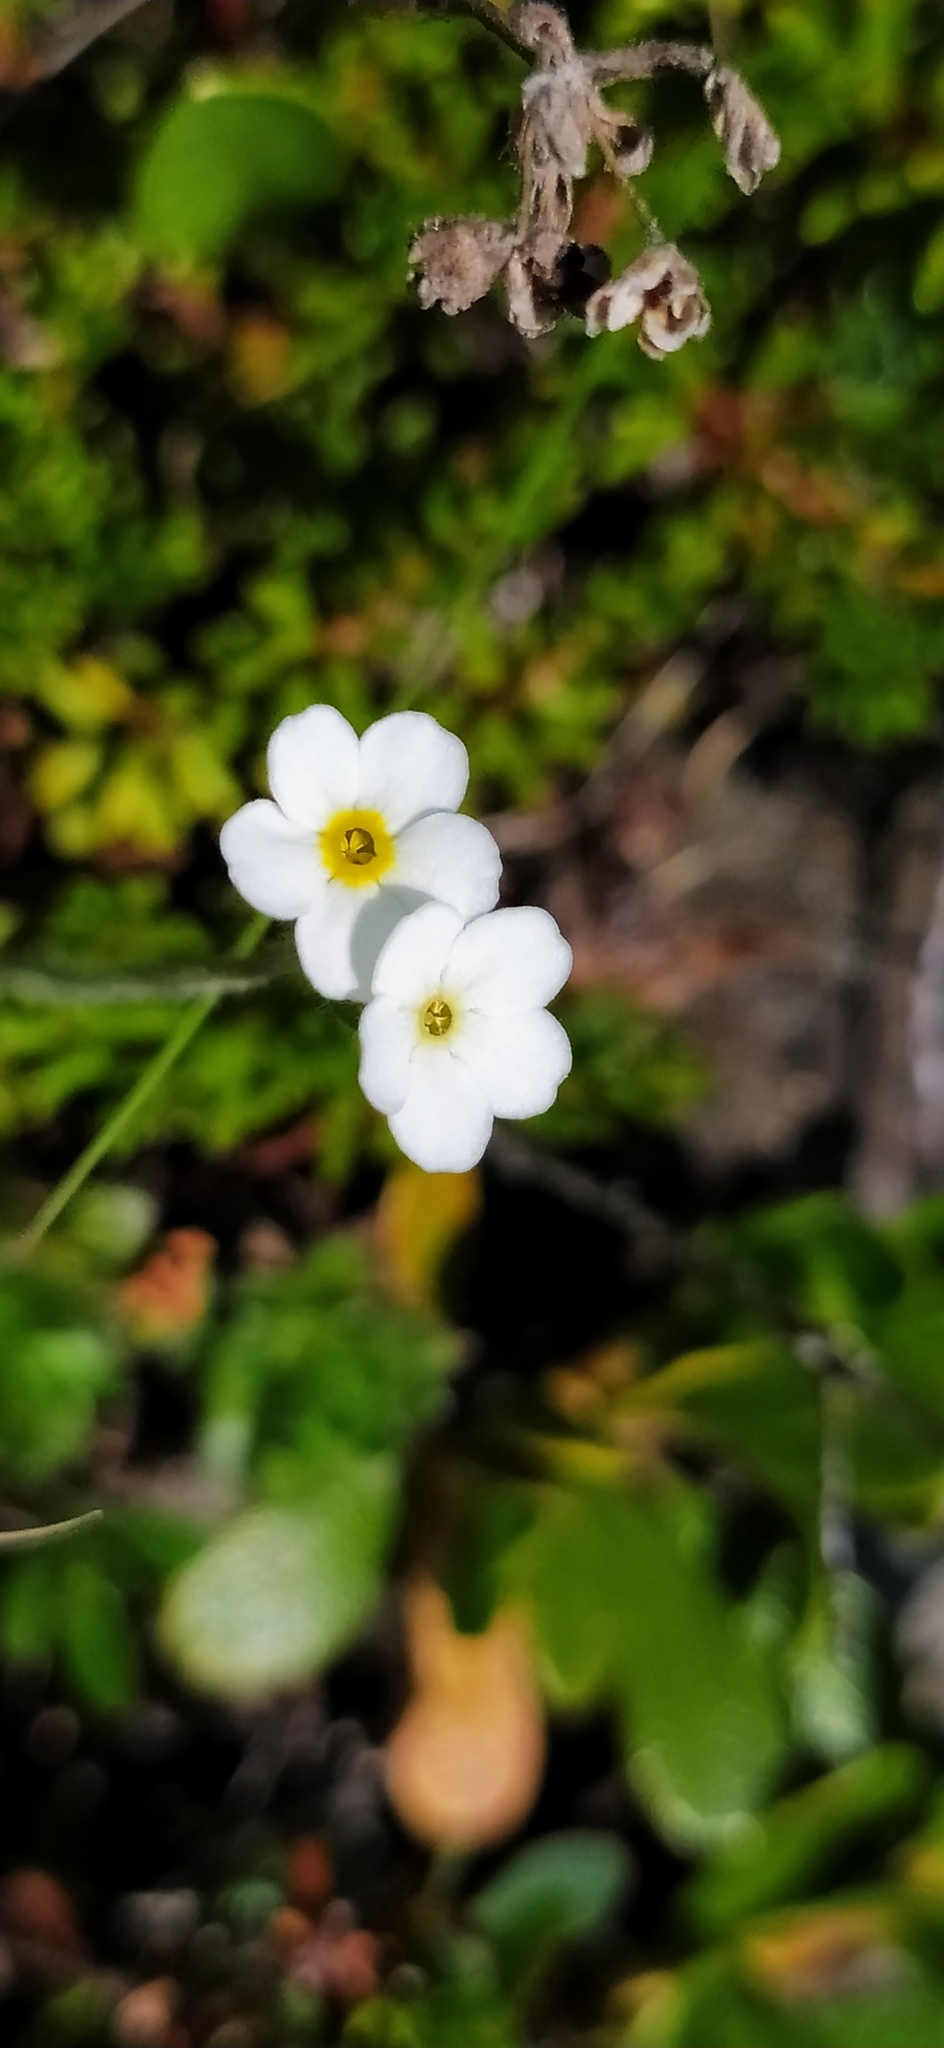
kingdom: Plantae
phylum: Tracheophyta
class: Magnoliopsida
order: Ericales
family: Primulaceae
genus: Androsace
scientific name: Androsace chamaejasme
